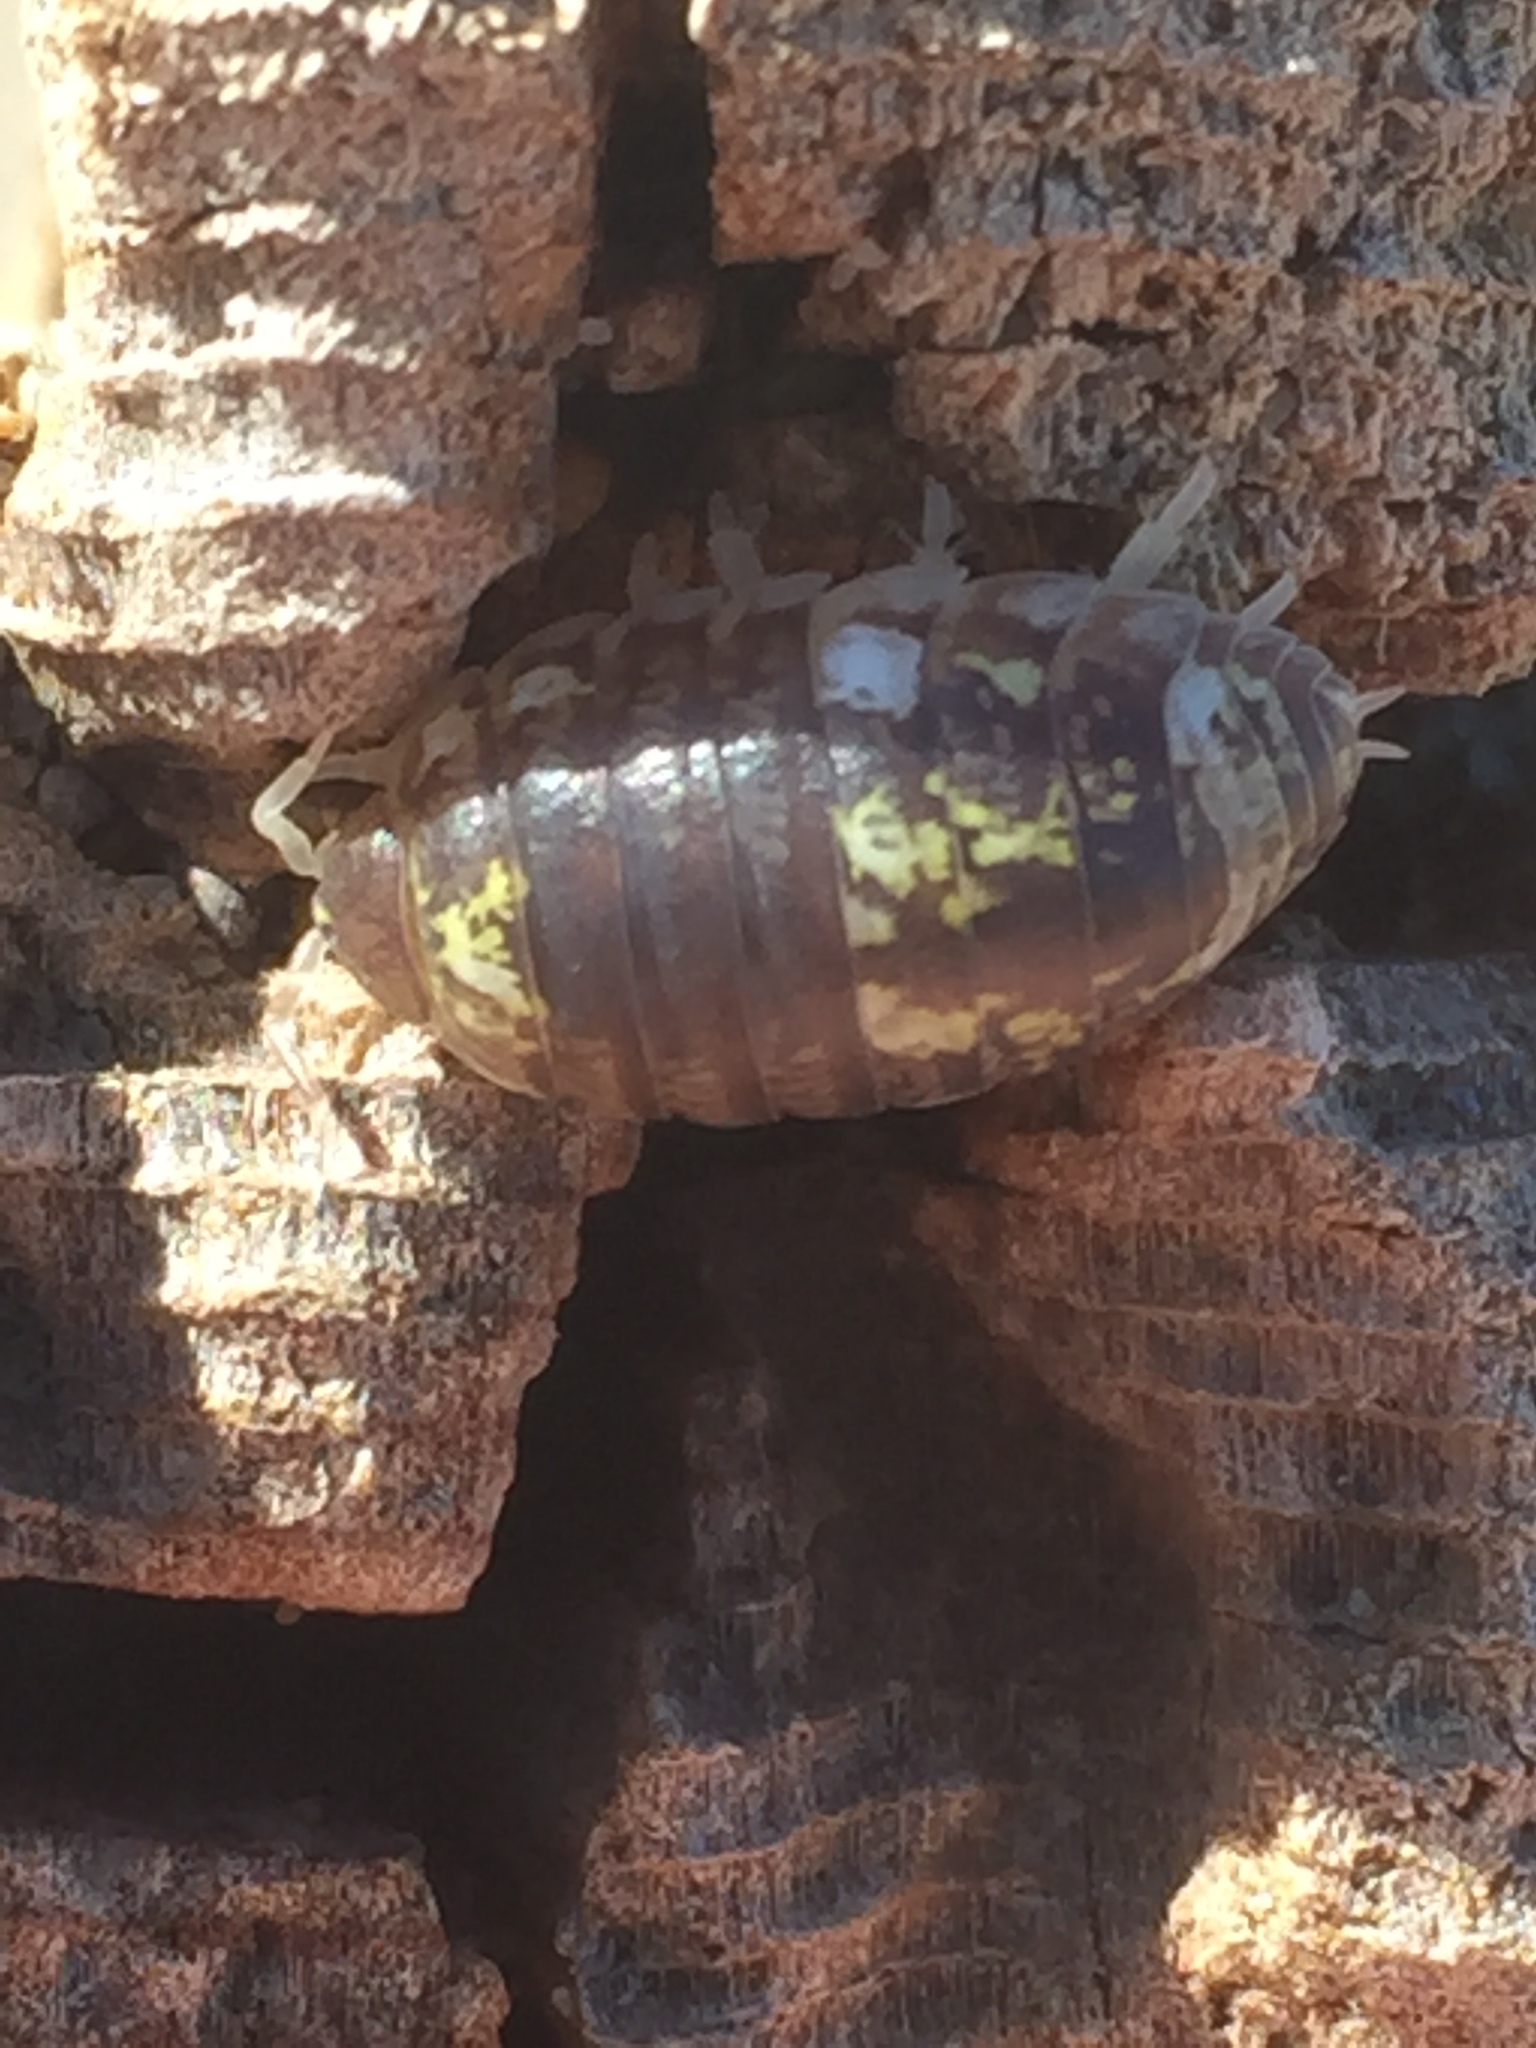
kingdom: Animalia
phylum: Arthropoda
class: Malacostraca
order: Isopoda
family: Alloniscidae
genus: Alloniscus
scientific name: Alloniscus perconvexus
